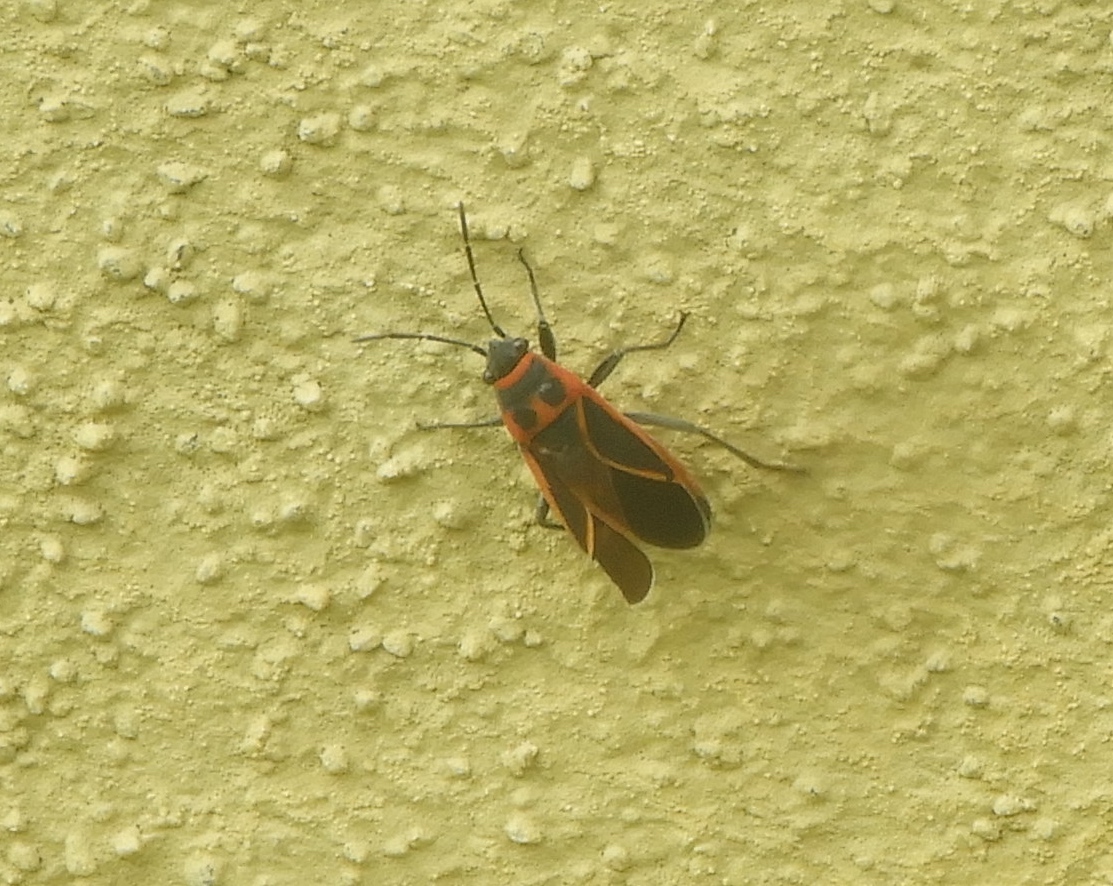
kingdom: Animalia
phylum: Arthropoda
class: Insecta
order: Hemiptera
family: Lygaeidae
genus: Ochrostomus
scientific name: Ochrostomus uhleri
